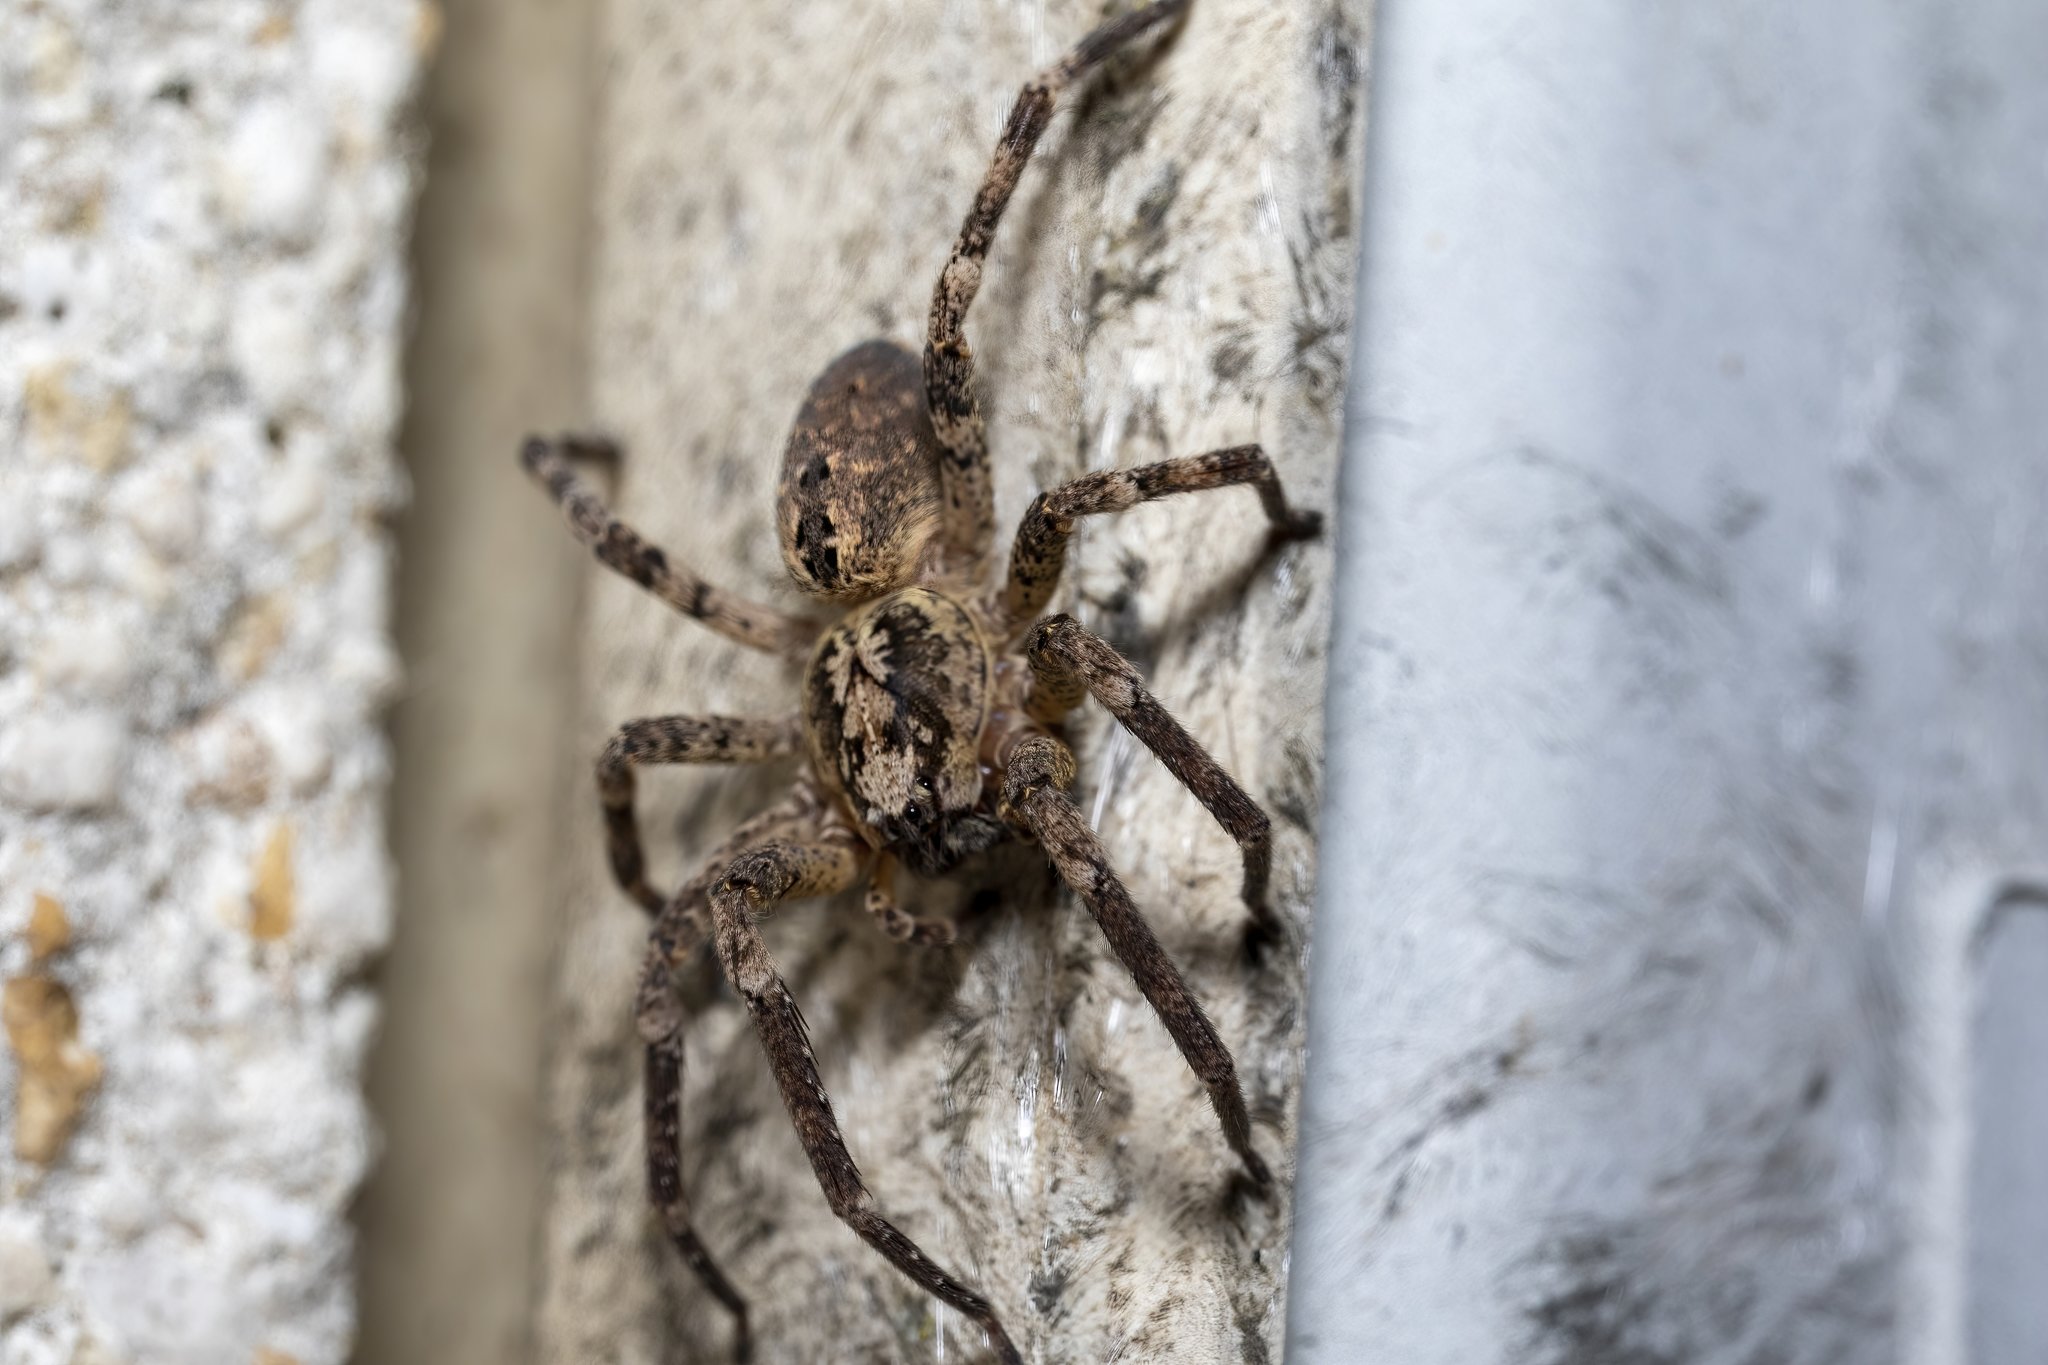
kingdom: Animalia
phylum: Arthropoda
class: Arachnida
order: Araneae
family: Zoropsidae
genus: Zoropsis
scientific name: Zoropsis spinimana
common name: Zoropsid spider
